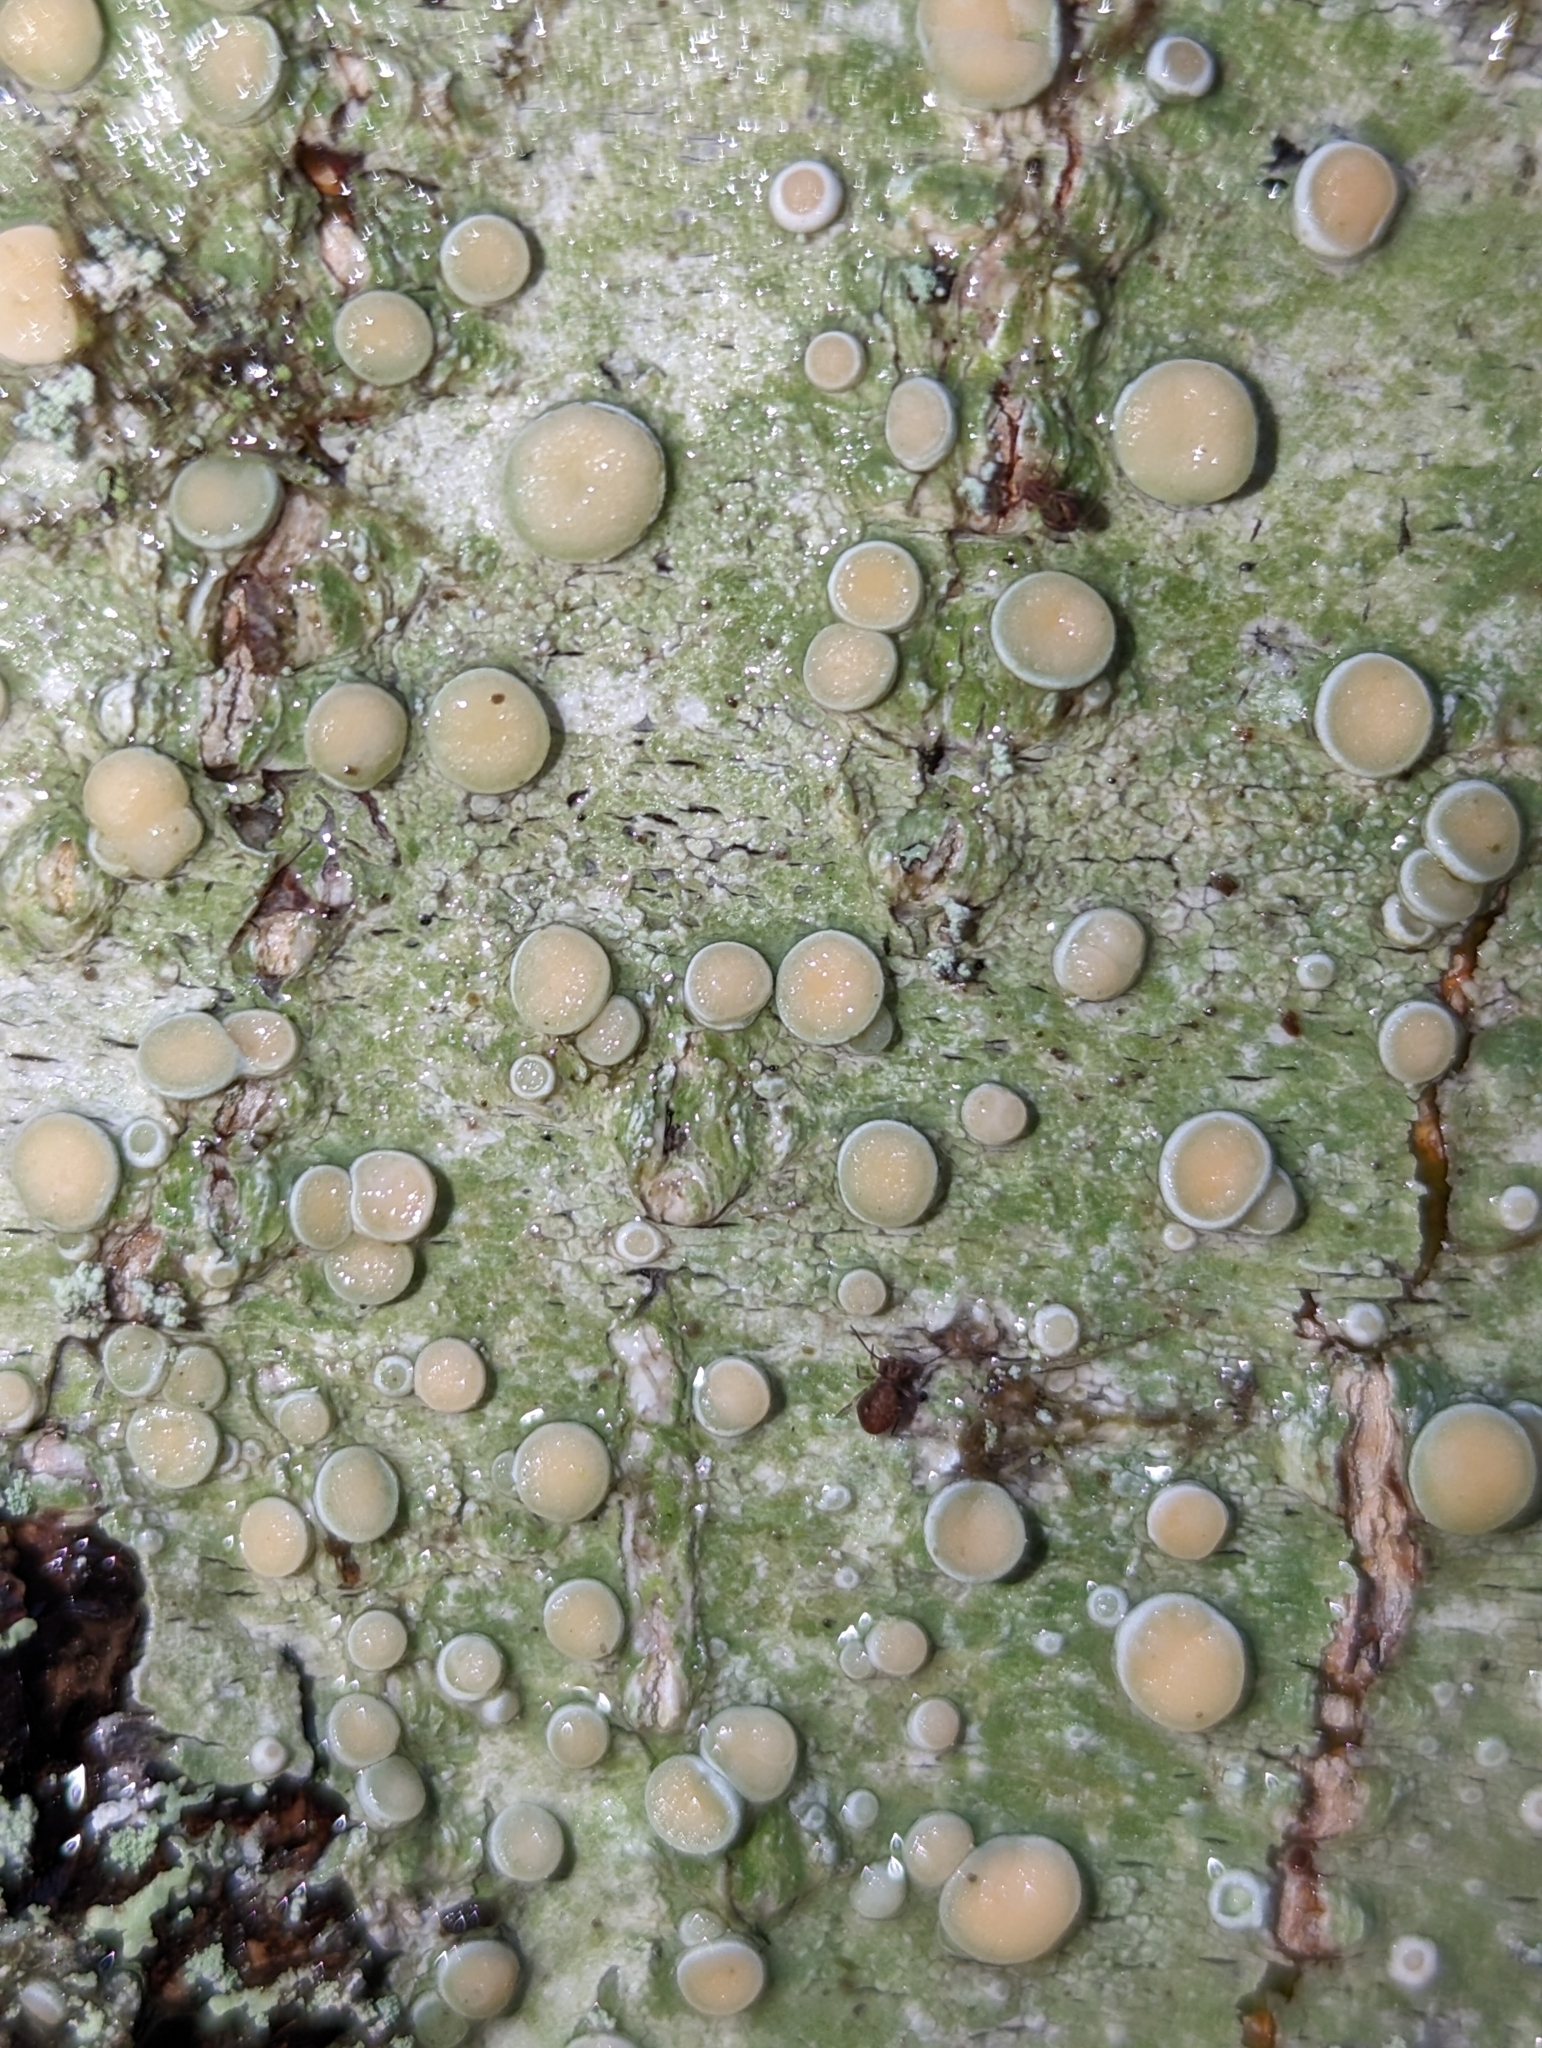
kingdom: Fungi
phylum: Ascomycota
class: Lecanoromycetes
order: Pertusariales
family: Ochrolechiaceae
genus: Ochrolechia
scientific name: Ochrolechia laevigata
